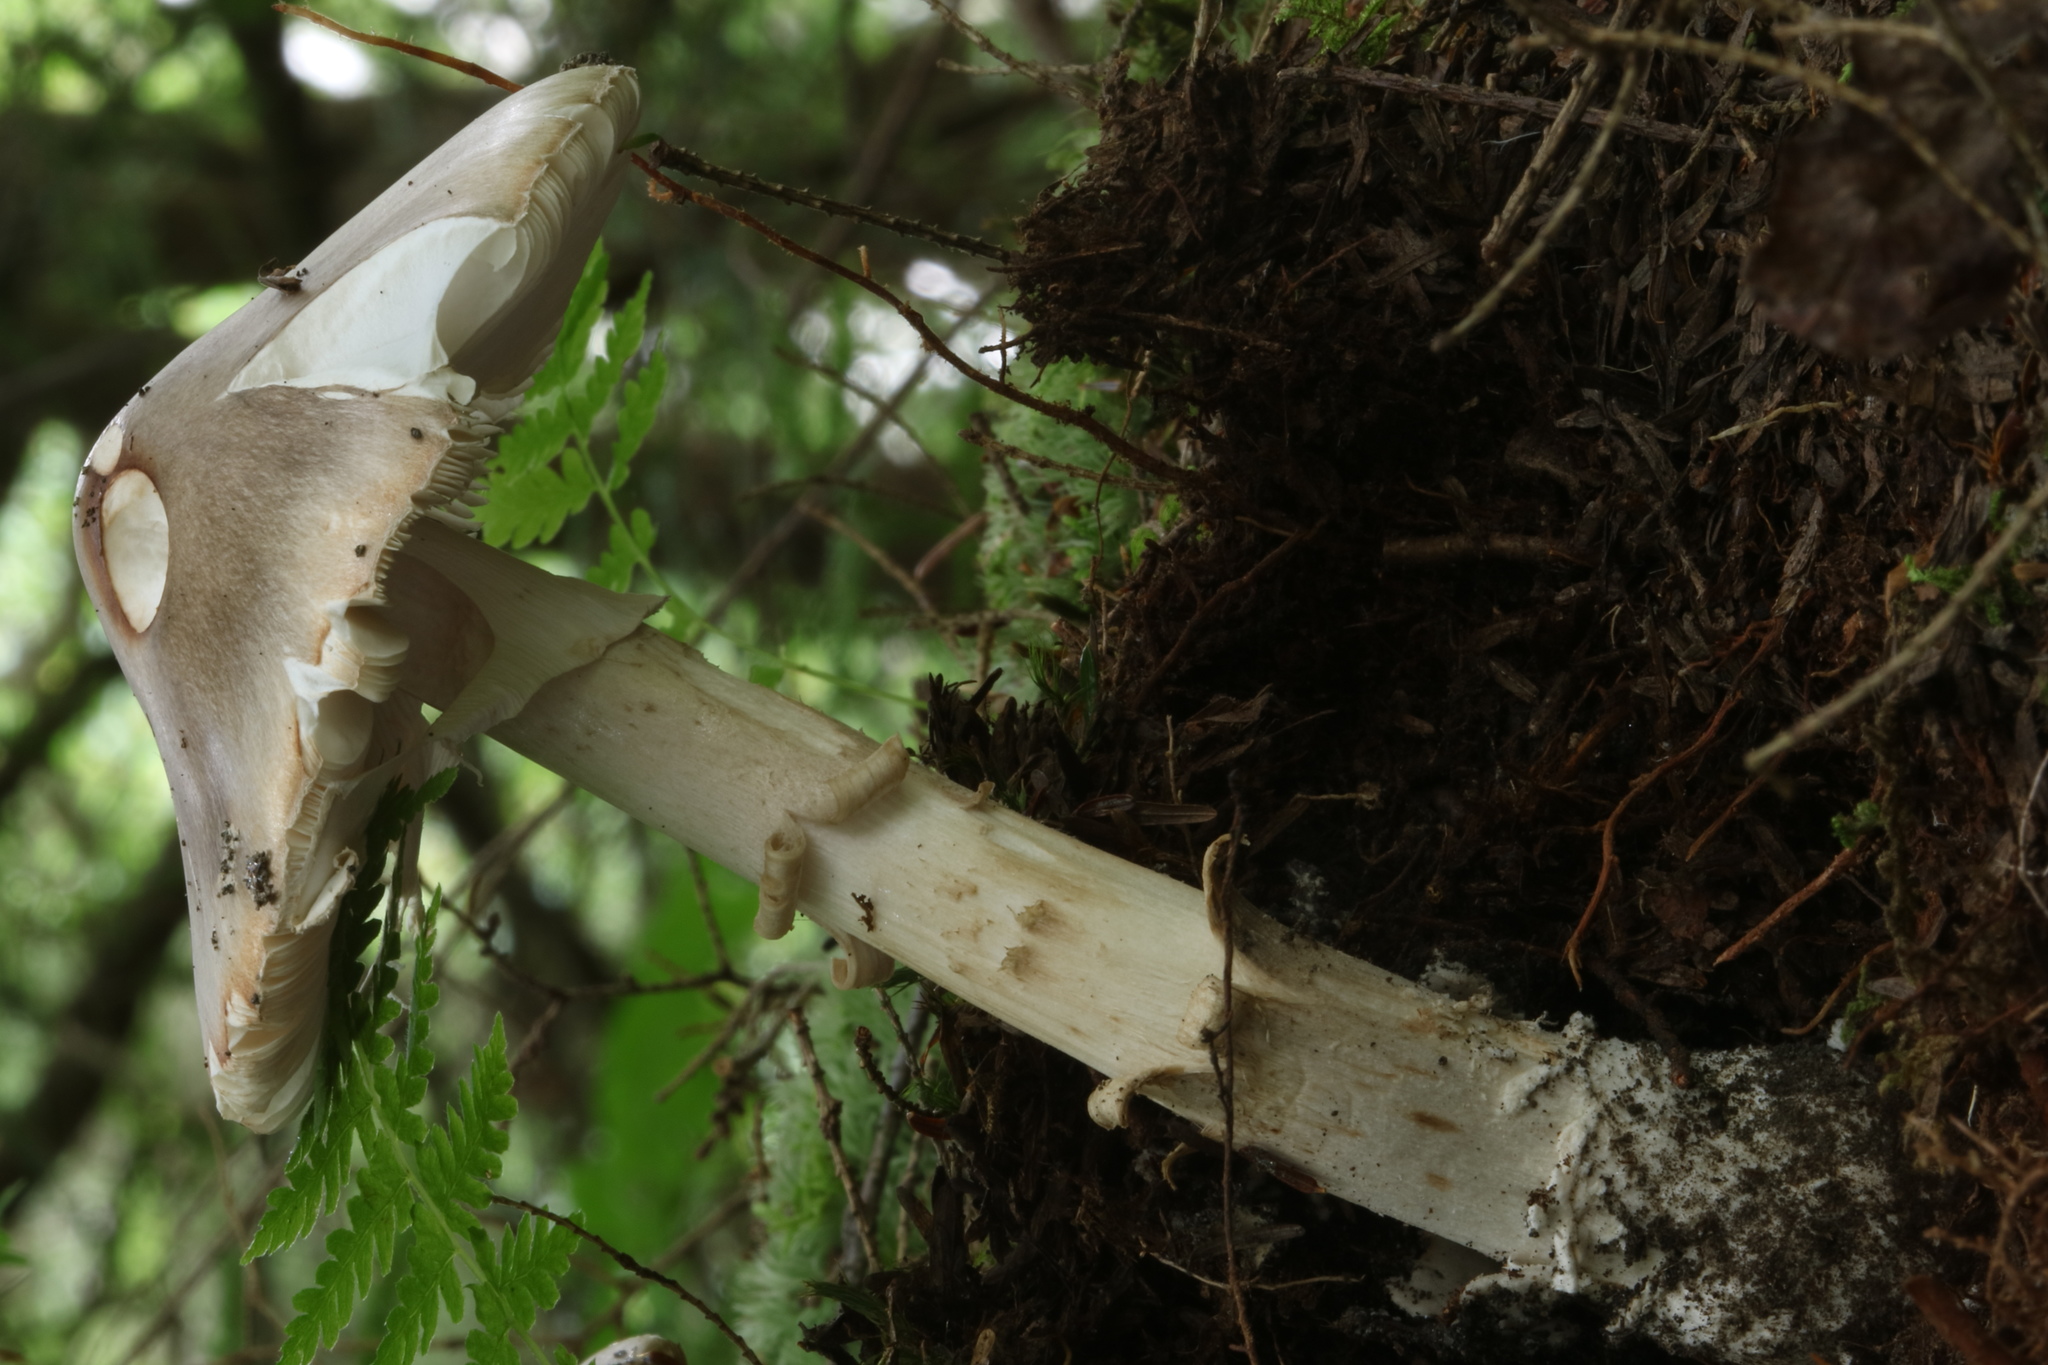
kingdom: Fungi
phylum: Basidiomycota
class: Agaricomycetes
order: Agaricales
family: Amanitaceae
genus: Amanita
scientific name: Amanita submaculata
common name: Ball gown amanita
